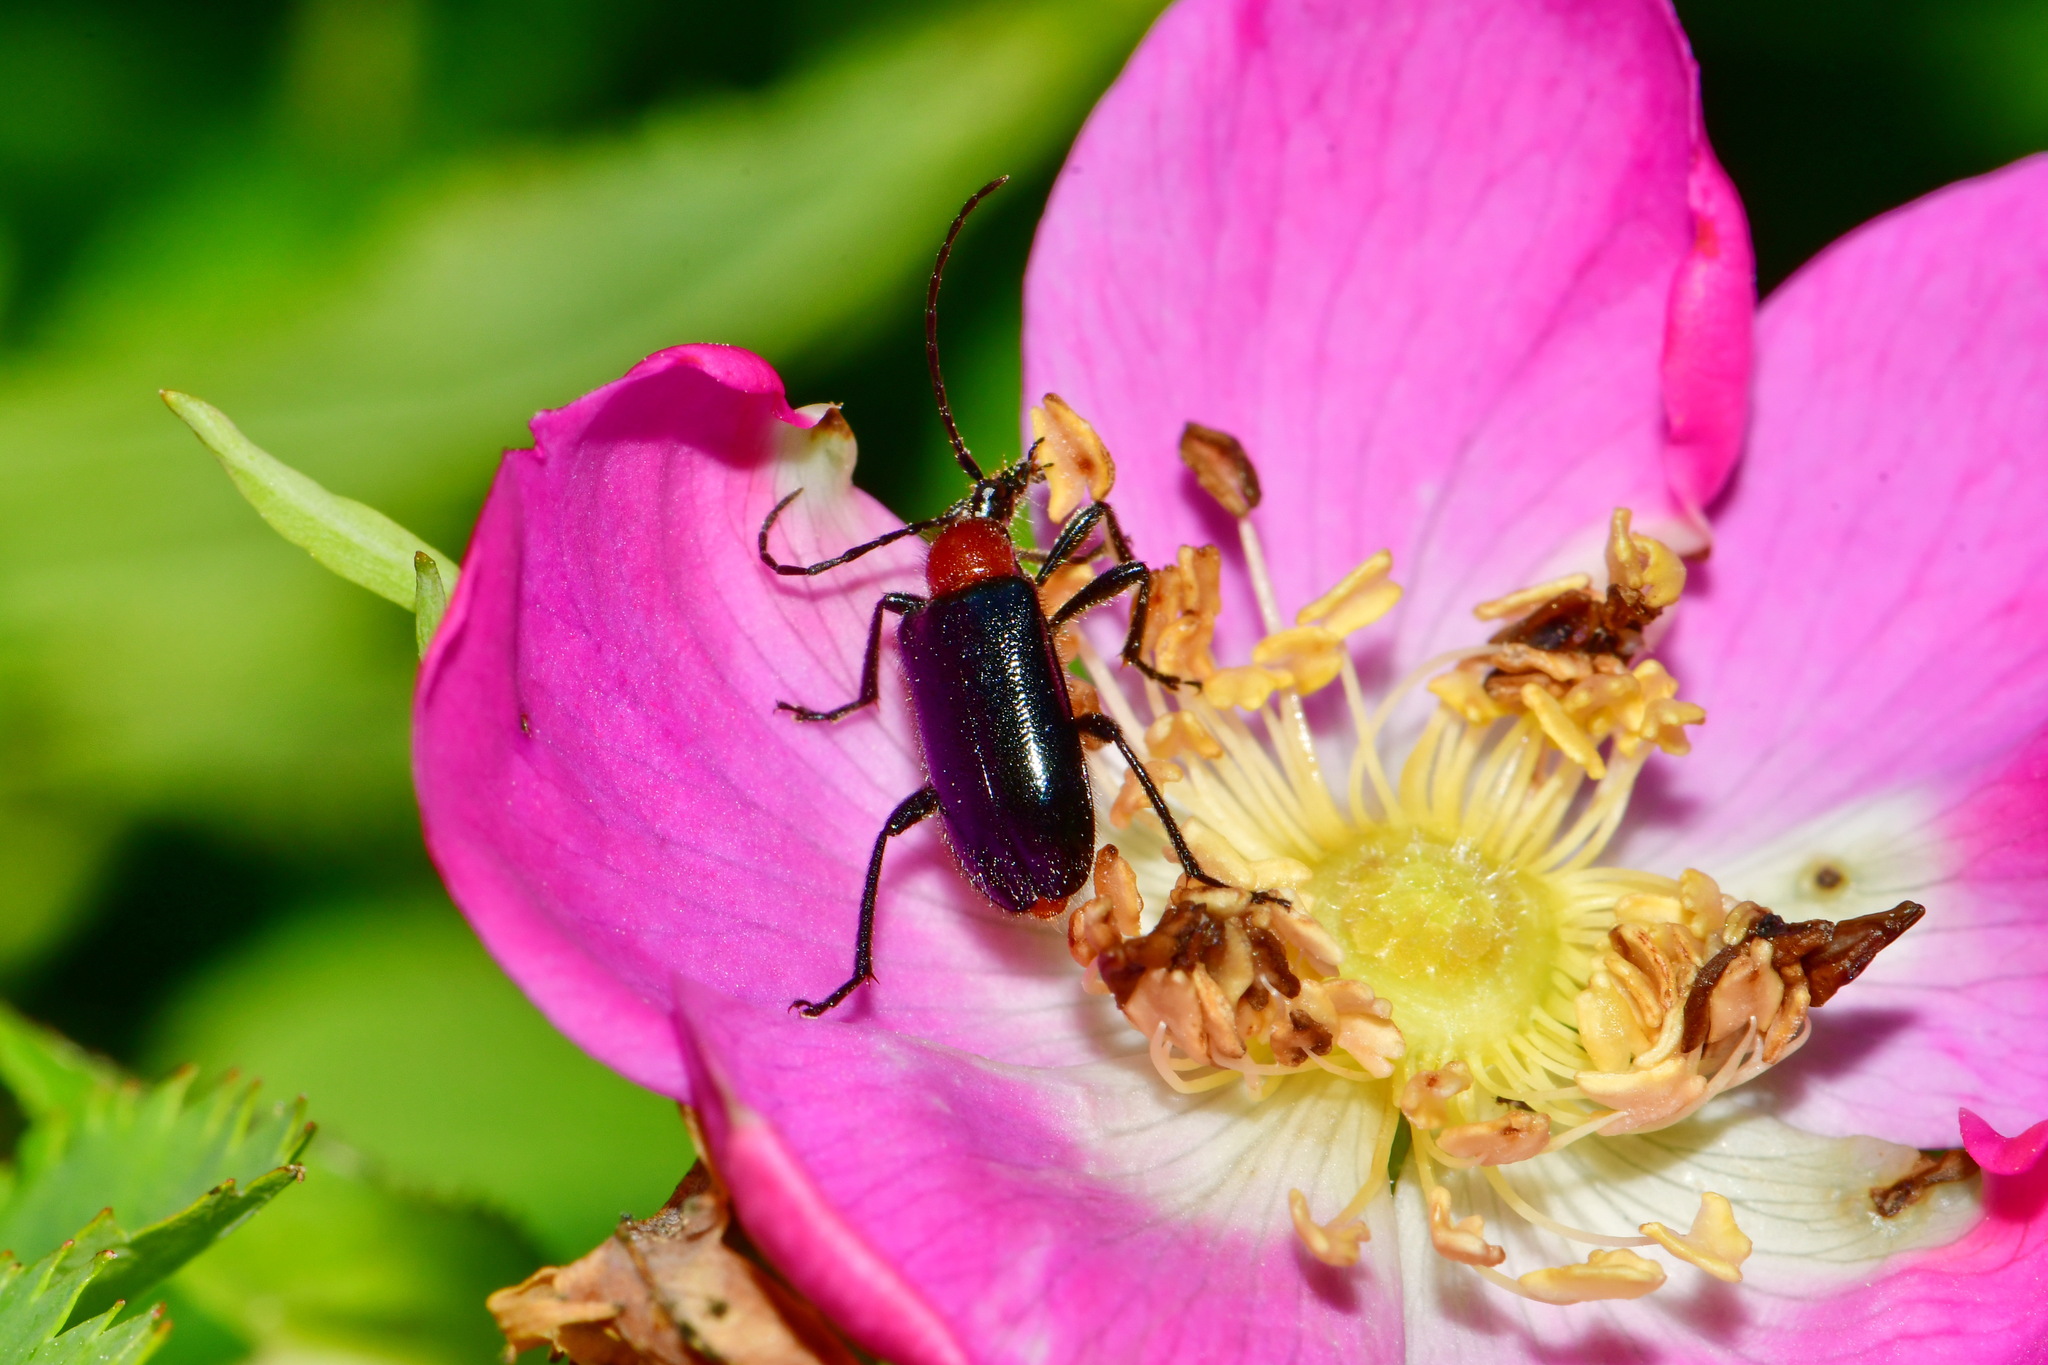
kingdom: Animalia
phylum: Arthropoda
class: Insecta
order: Coleoptera
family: Cerambycidae
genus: Dinoptera
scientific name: Dinoptera collaris
